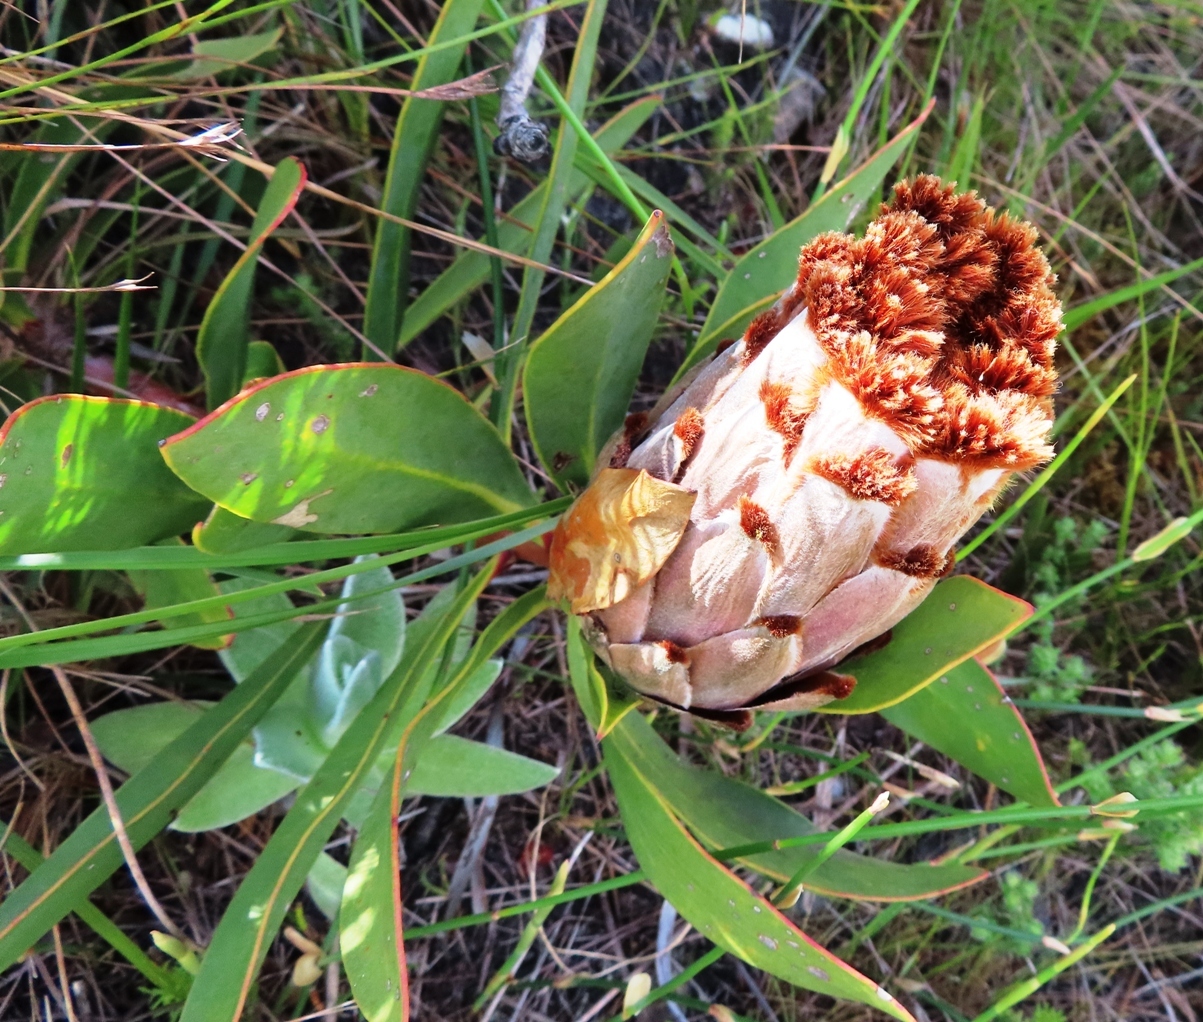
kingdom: Plantae
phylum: Tracheophyta
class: Magnoliopsida
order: Proteales
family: Proteaceae
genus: Protea
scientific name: Protea speciosa
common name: Brown-beard sugarbush
